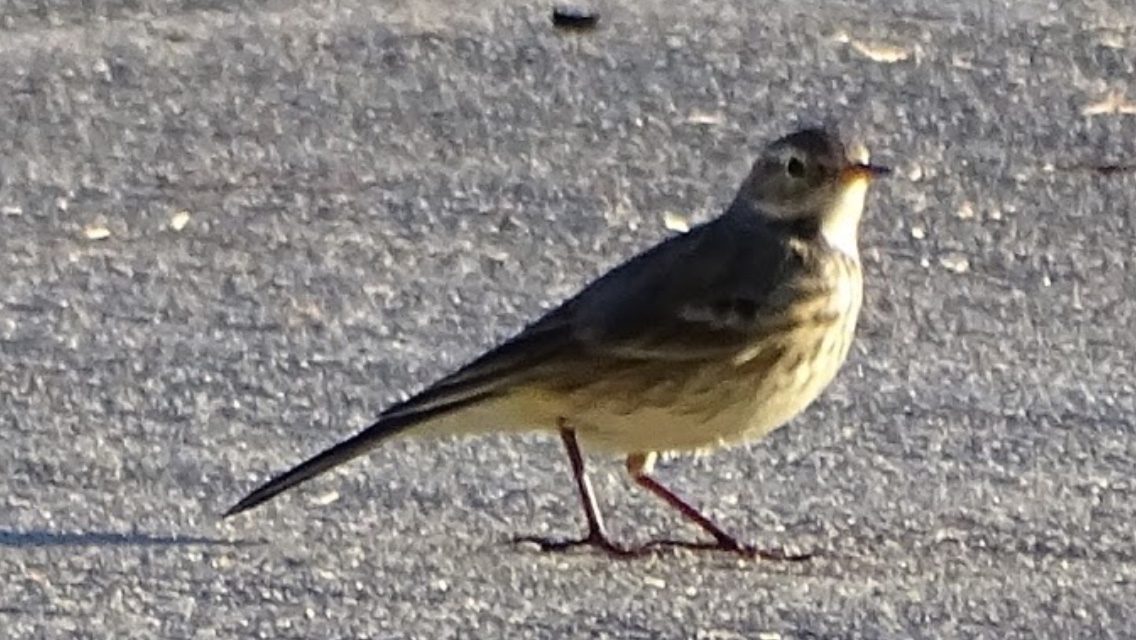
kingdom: Animalia
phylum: Chordata
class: Aves
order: Passeriformes
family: Motacillidae
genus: Anthus
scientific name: Anthus rubescens
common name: Buff-bellied pipit
